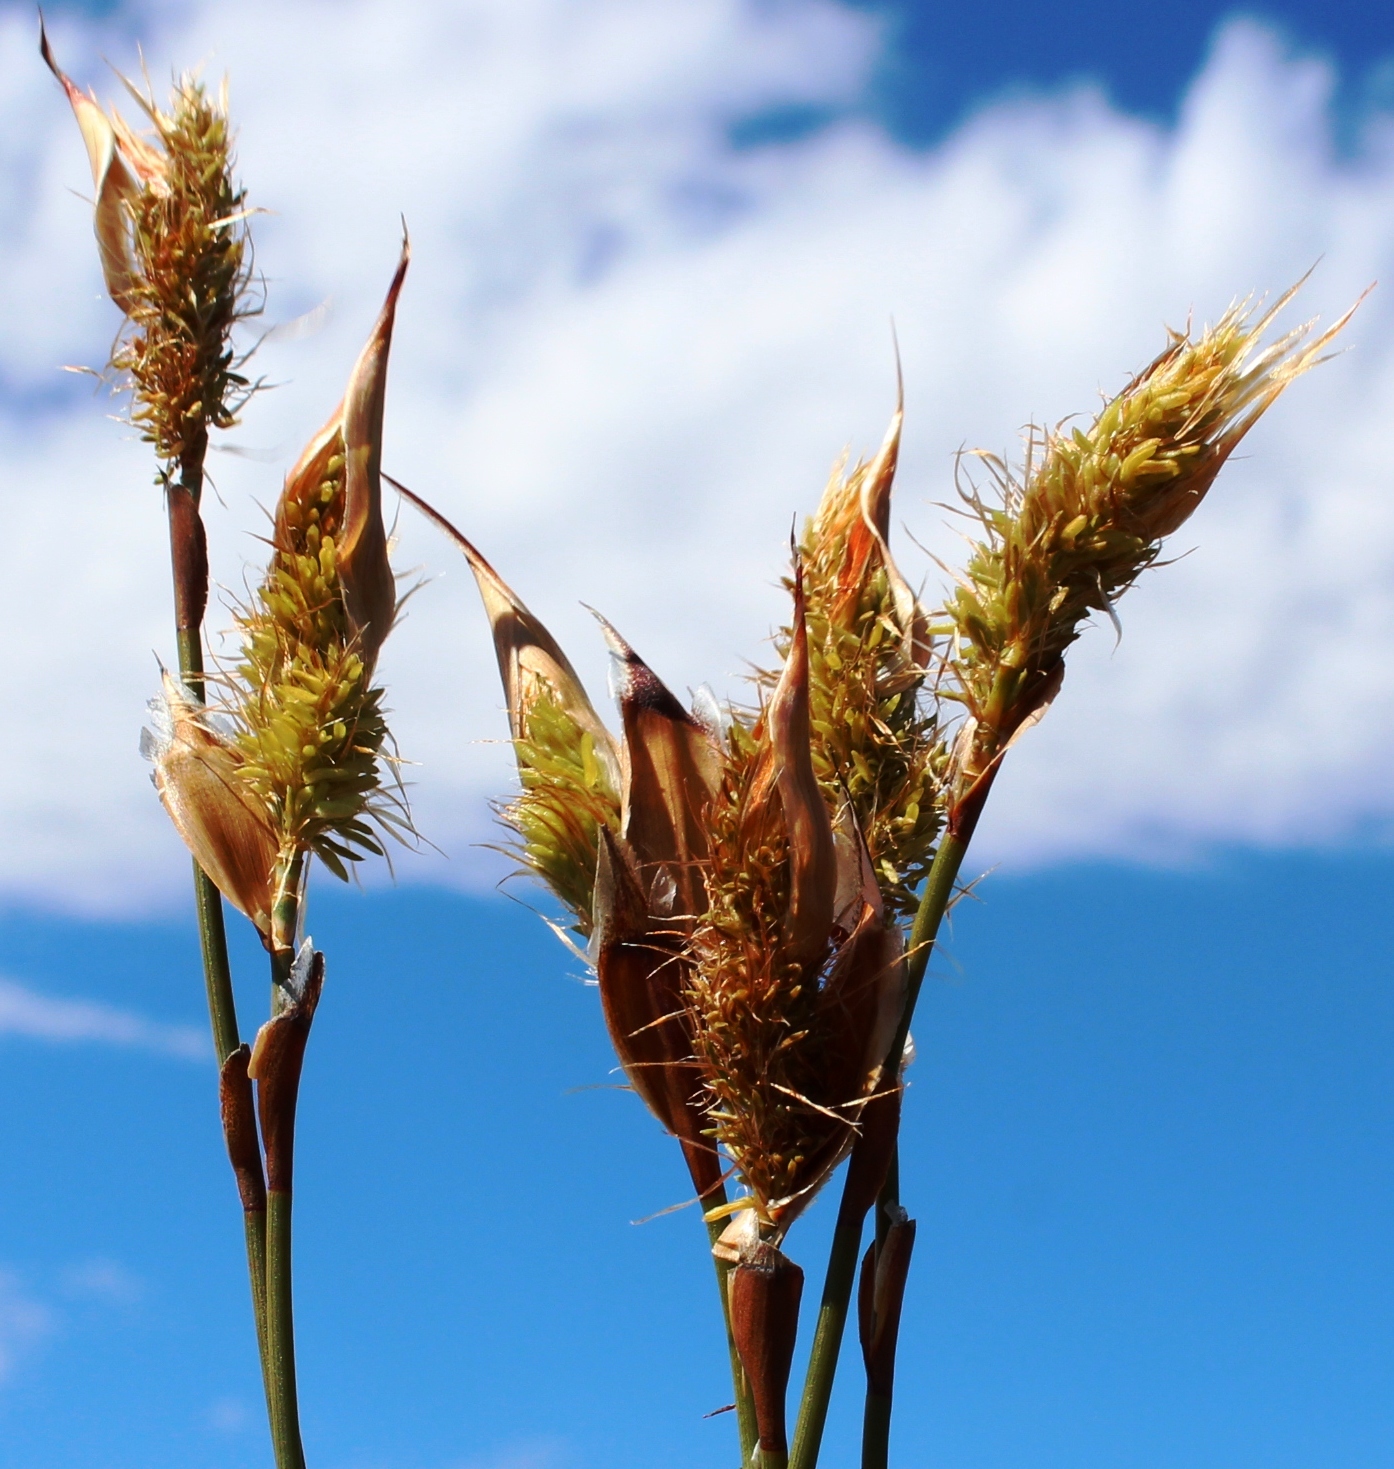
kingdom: Plantae
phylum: Tracheophyta
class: Liliopsida
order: Poales
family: Restionaceae
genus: Willdenowia
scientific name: Willdenowia incurvata
